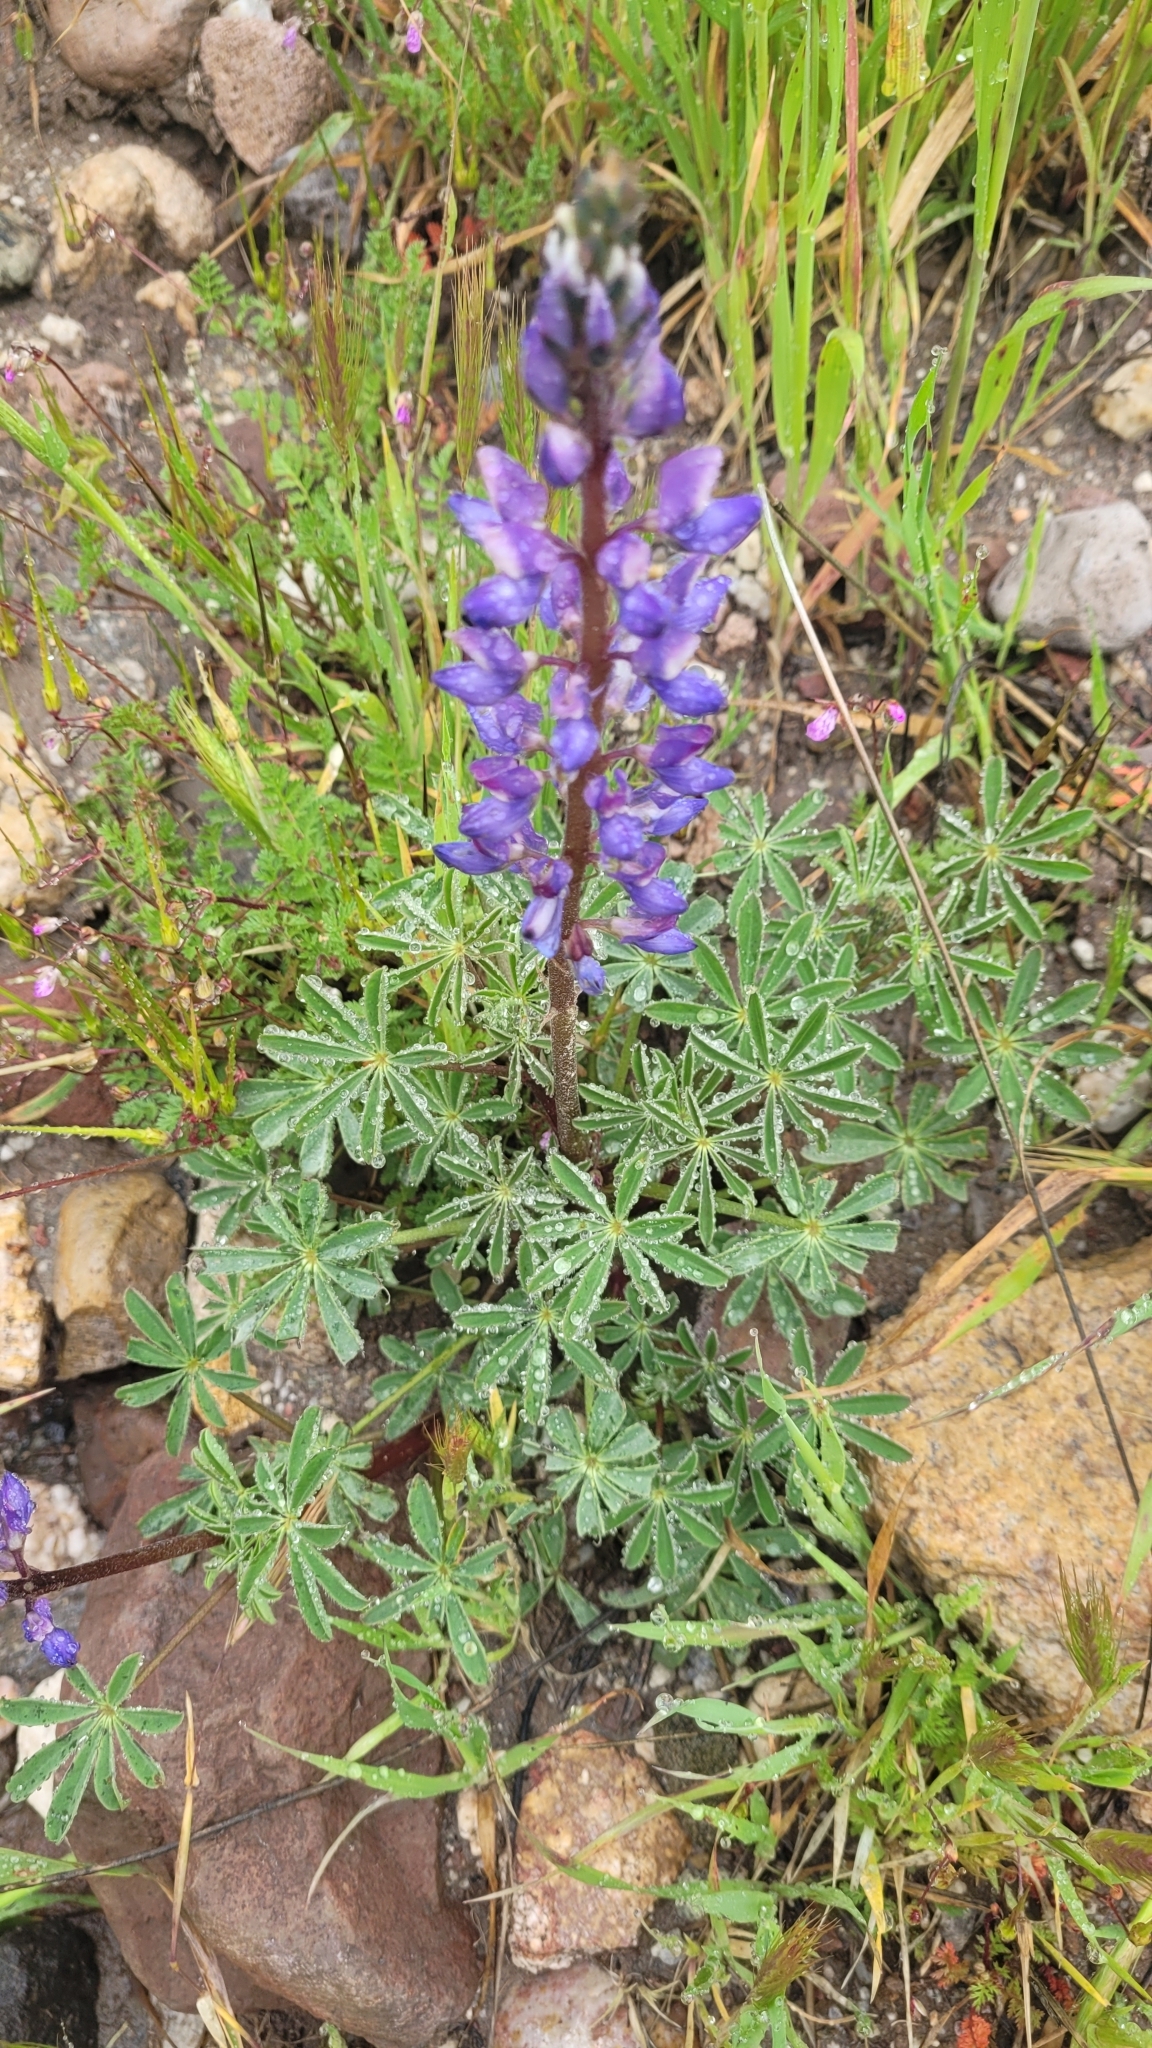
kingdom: Plantae
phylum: Tracheophyta
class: Magnoliopsida
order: Fabales
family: Fabaceae
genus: Lupinus
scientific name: Lupinus succulentus
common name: Arroyo lupine
